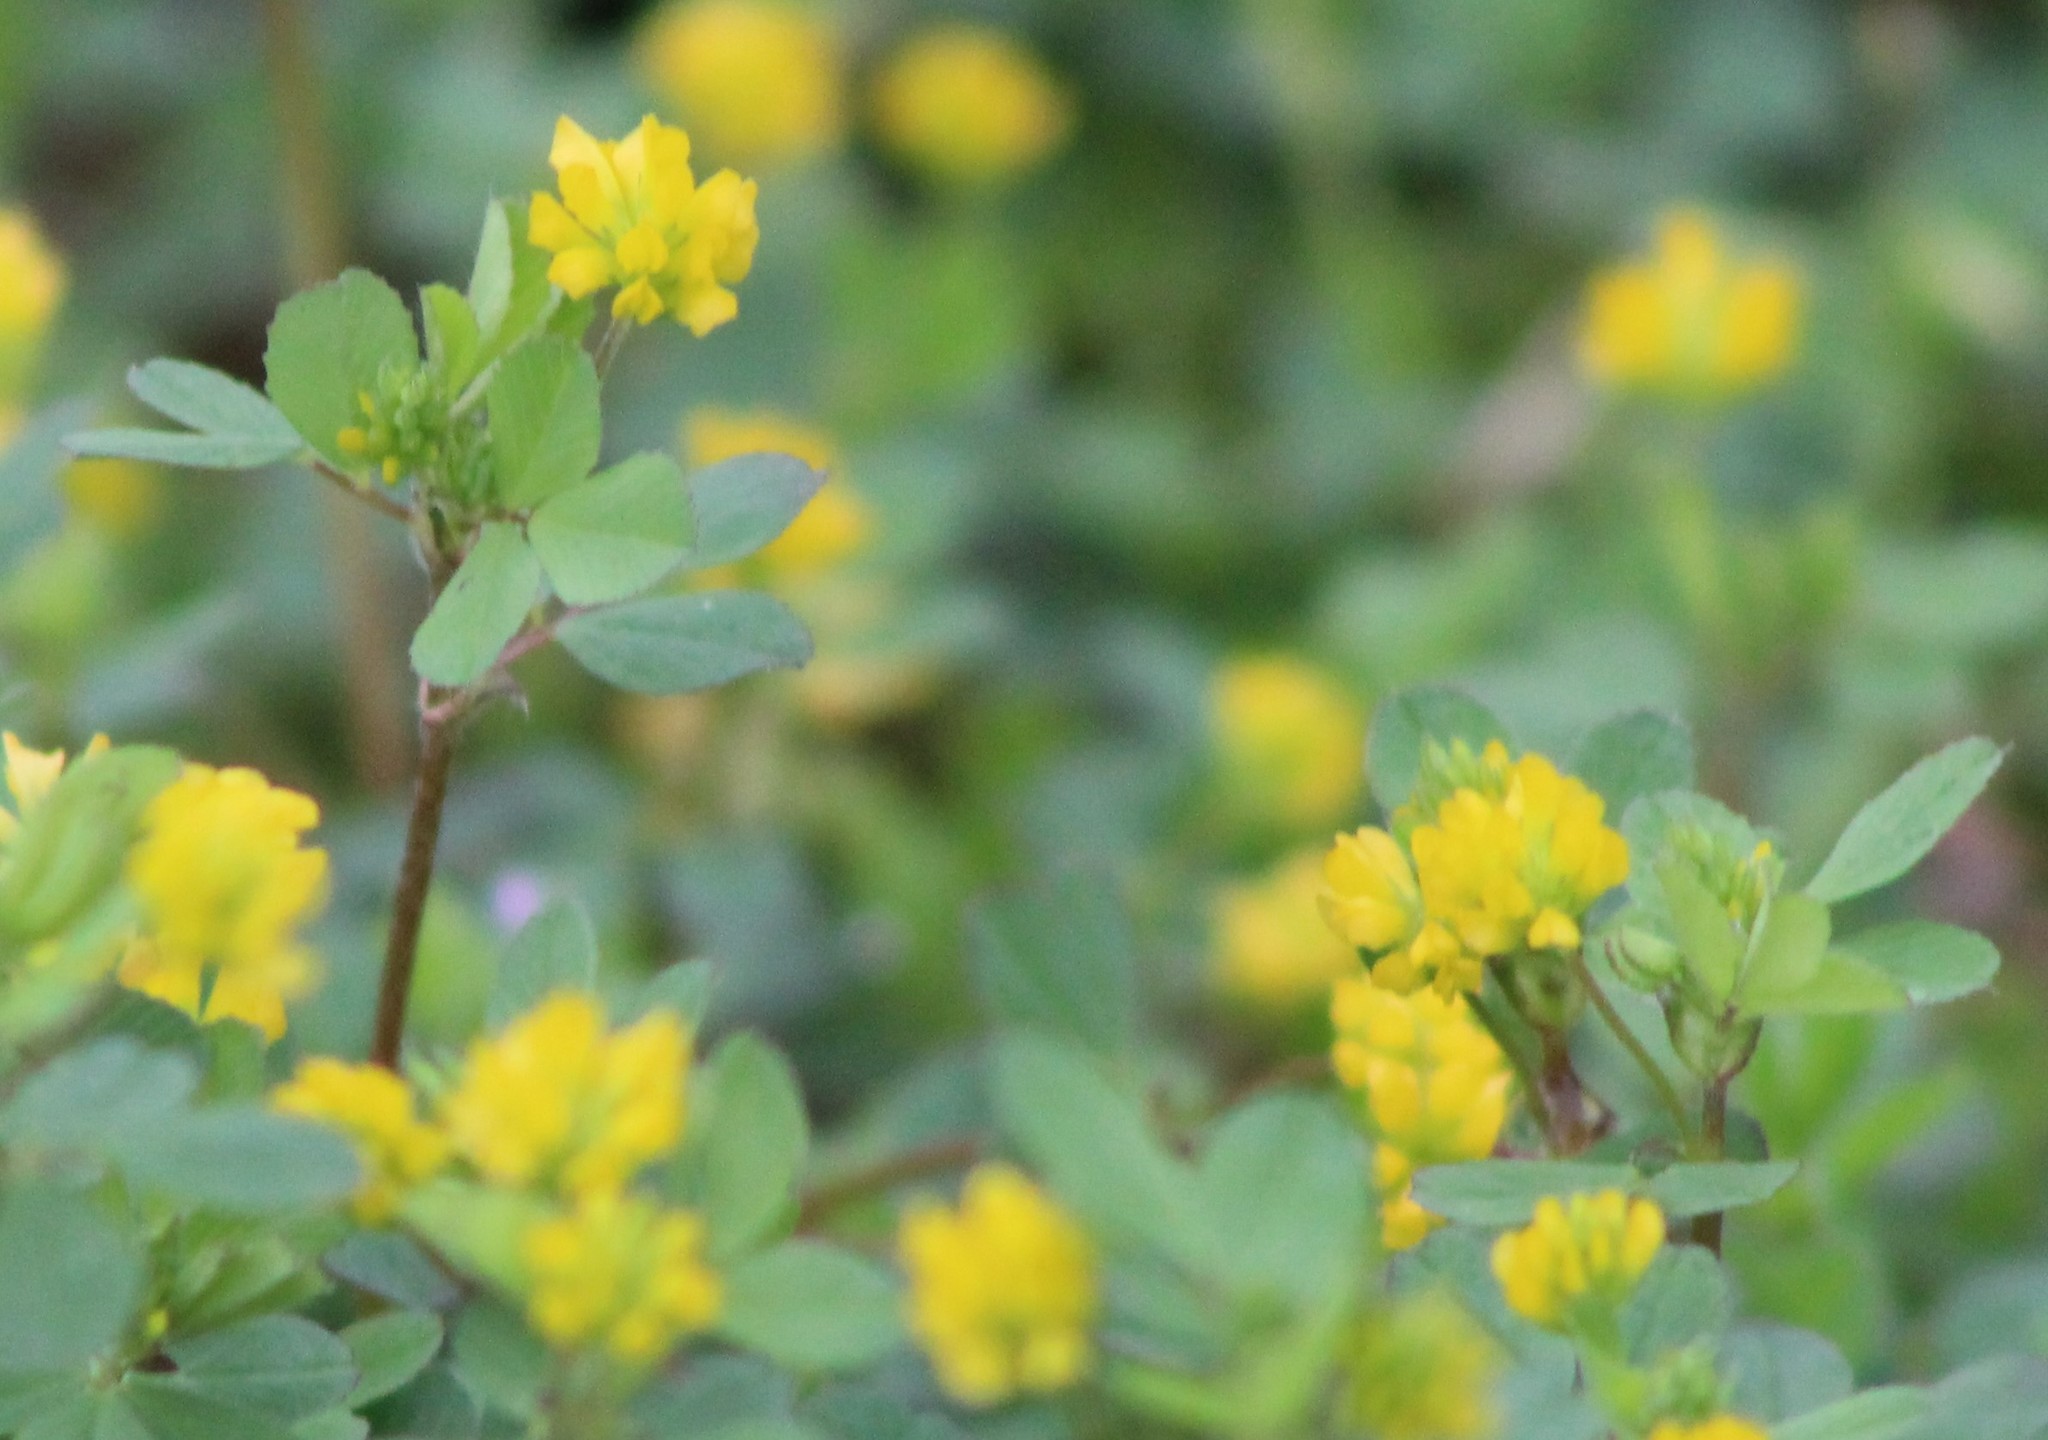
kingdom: Plantae
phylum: Tracheophyta
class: Magnoliopsida
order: Fabales
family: Fabaceae
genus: Trifolium
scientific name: Trifolium campestre
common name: Field clover
